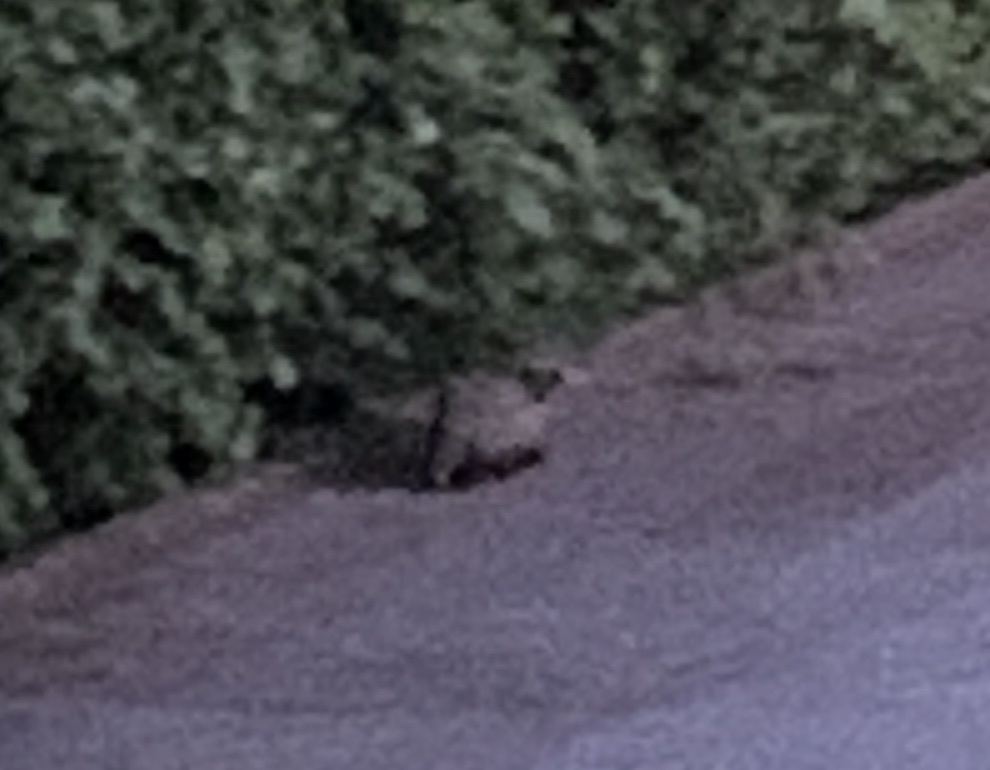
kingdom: Animalia
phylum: Chordata
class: Mammalia
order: Carnivora
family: Mustelidae
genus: Meles
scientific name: Meles meles
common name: Eurasian badger
